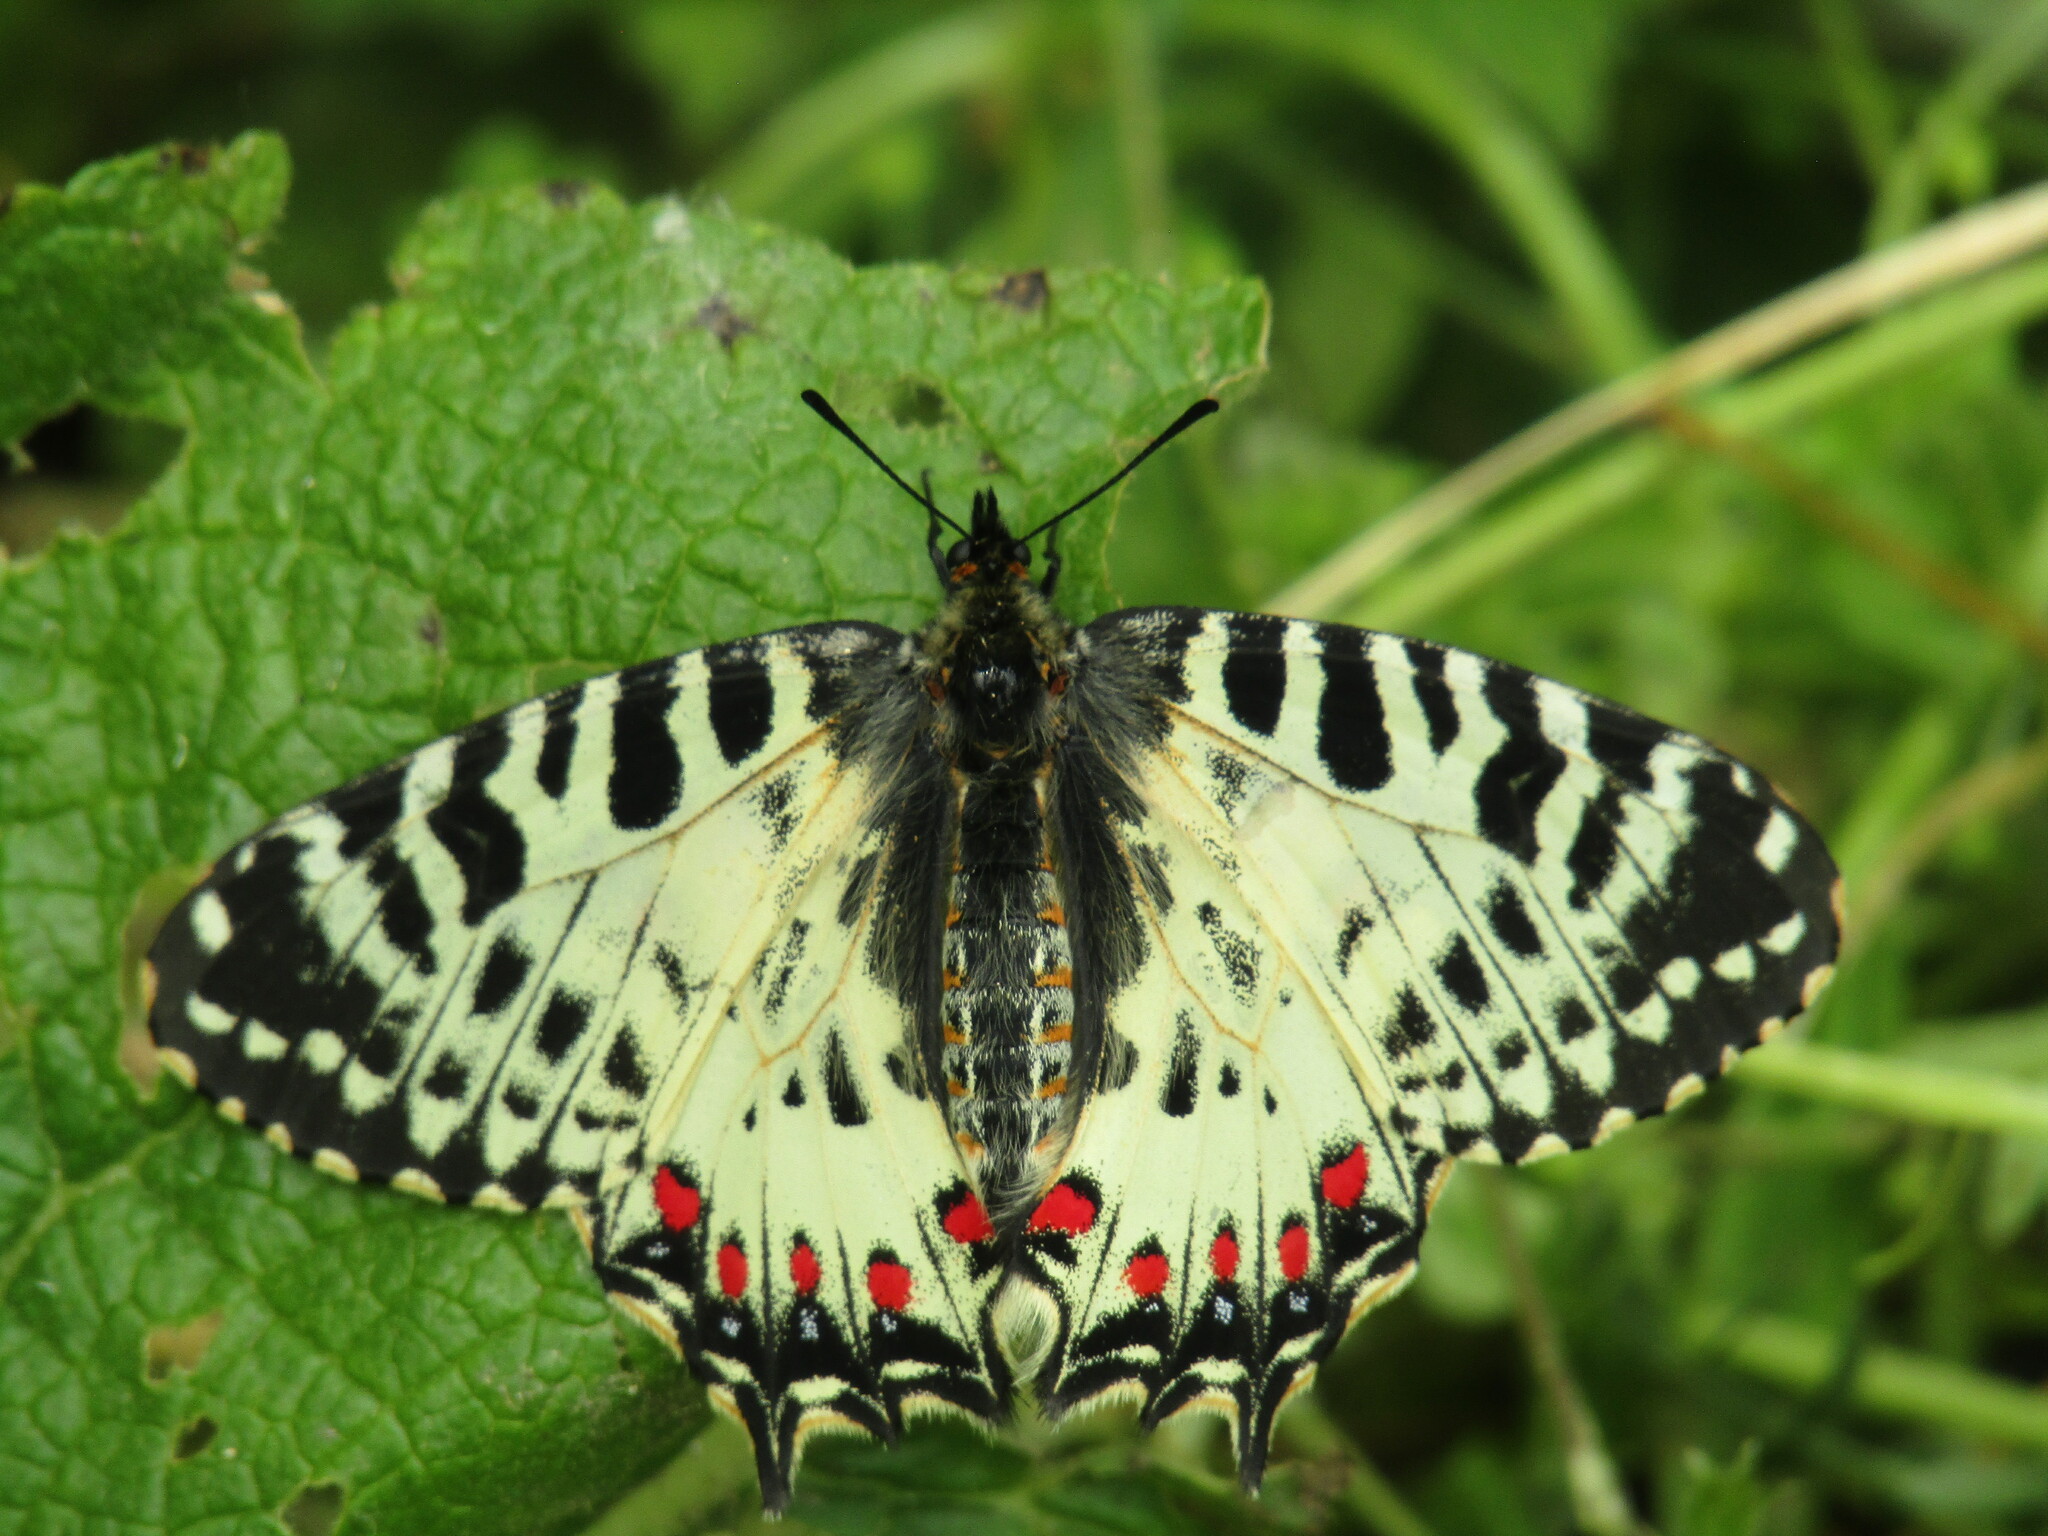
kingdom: Animalia
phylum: Arthropoda
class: Insecta
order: Lepidoptera
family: Papilionidae
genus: Zerynthia
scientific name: Zerynthia cerisy
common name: Eastern festoon
